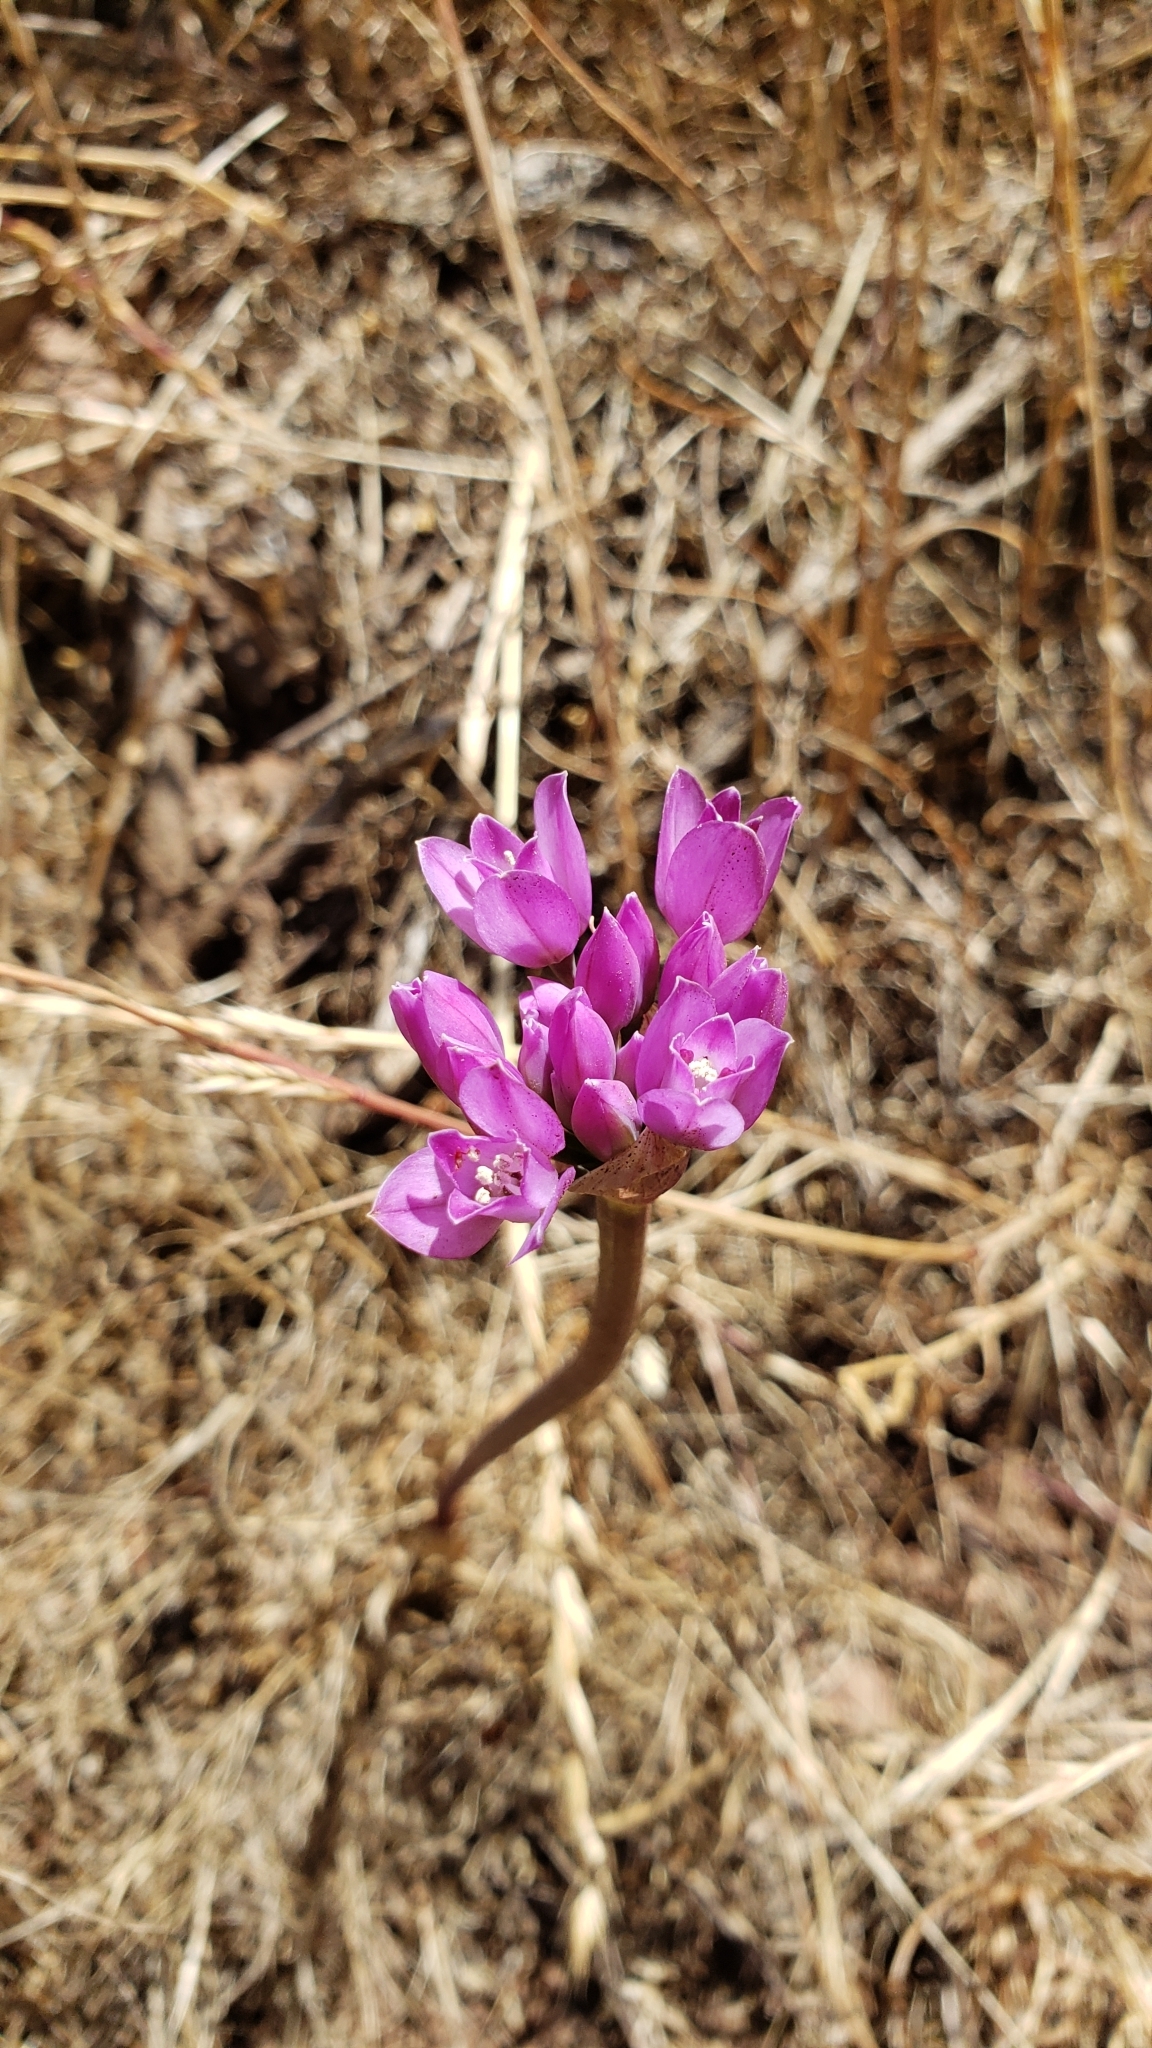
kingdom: Plantae
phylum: Tracheophyta
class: Liliopsida
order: Asparagales
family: Amaryllidaceae
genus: Allium
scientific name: Allium dichlamydeum
